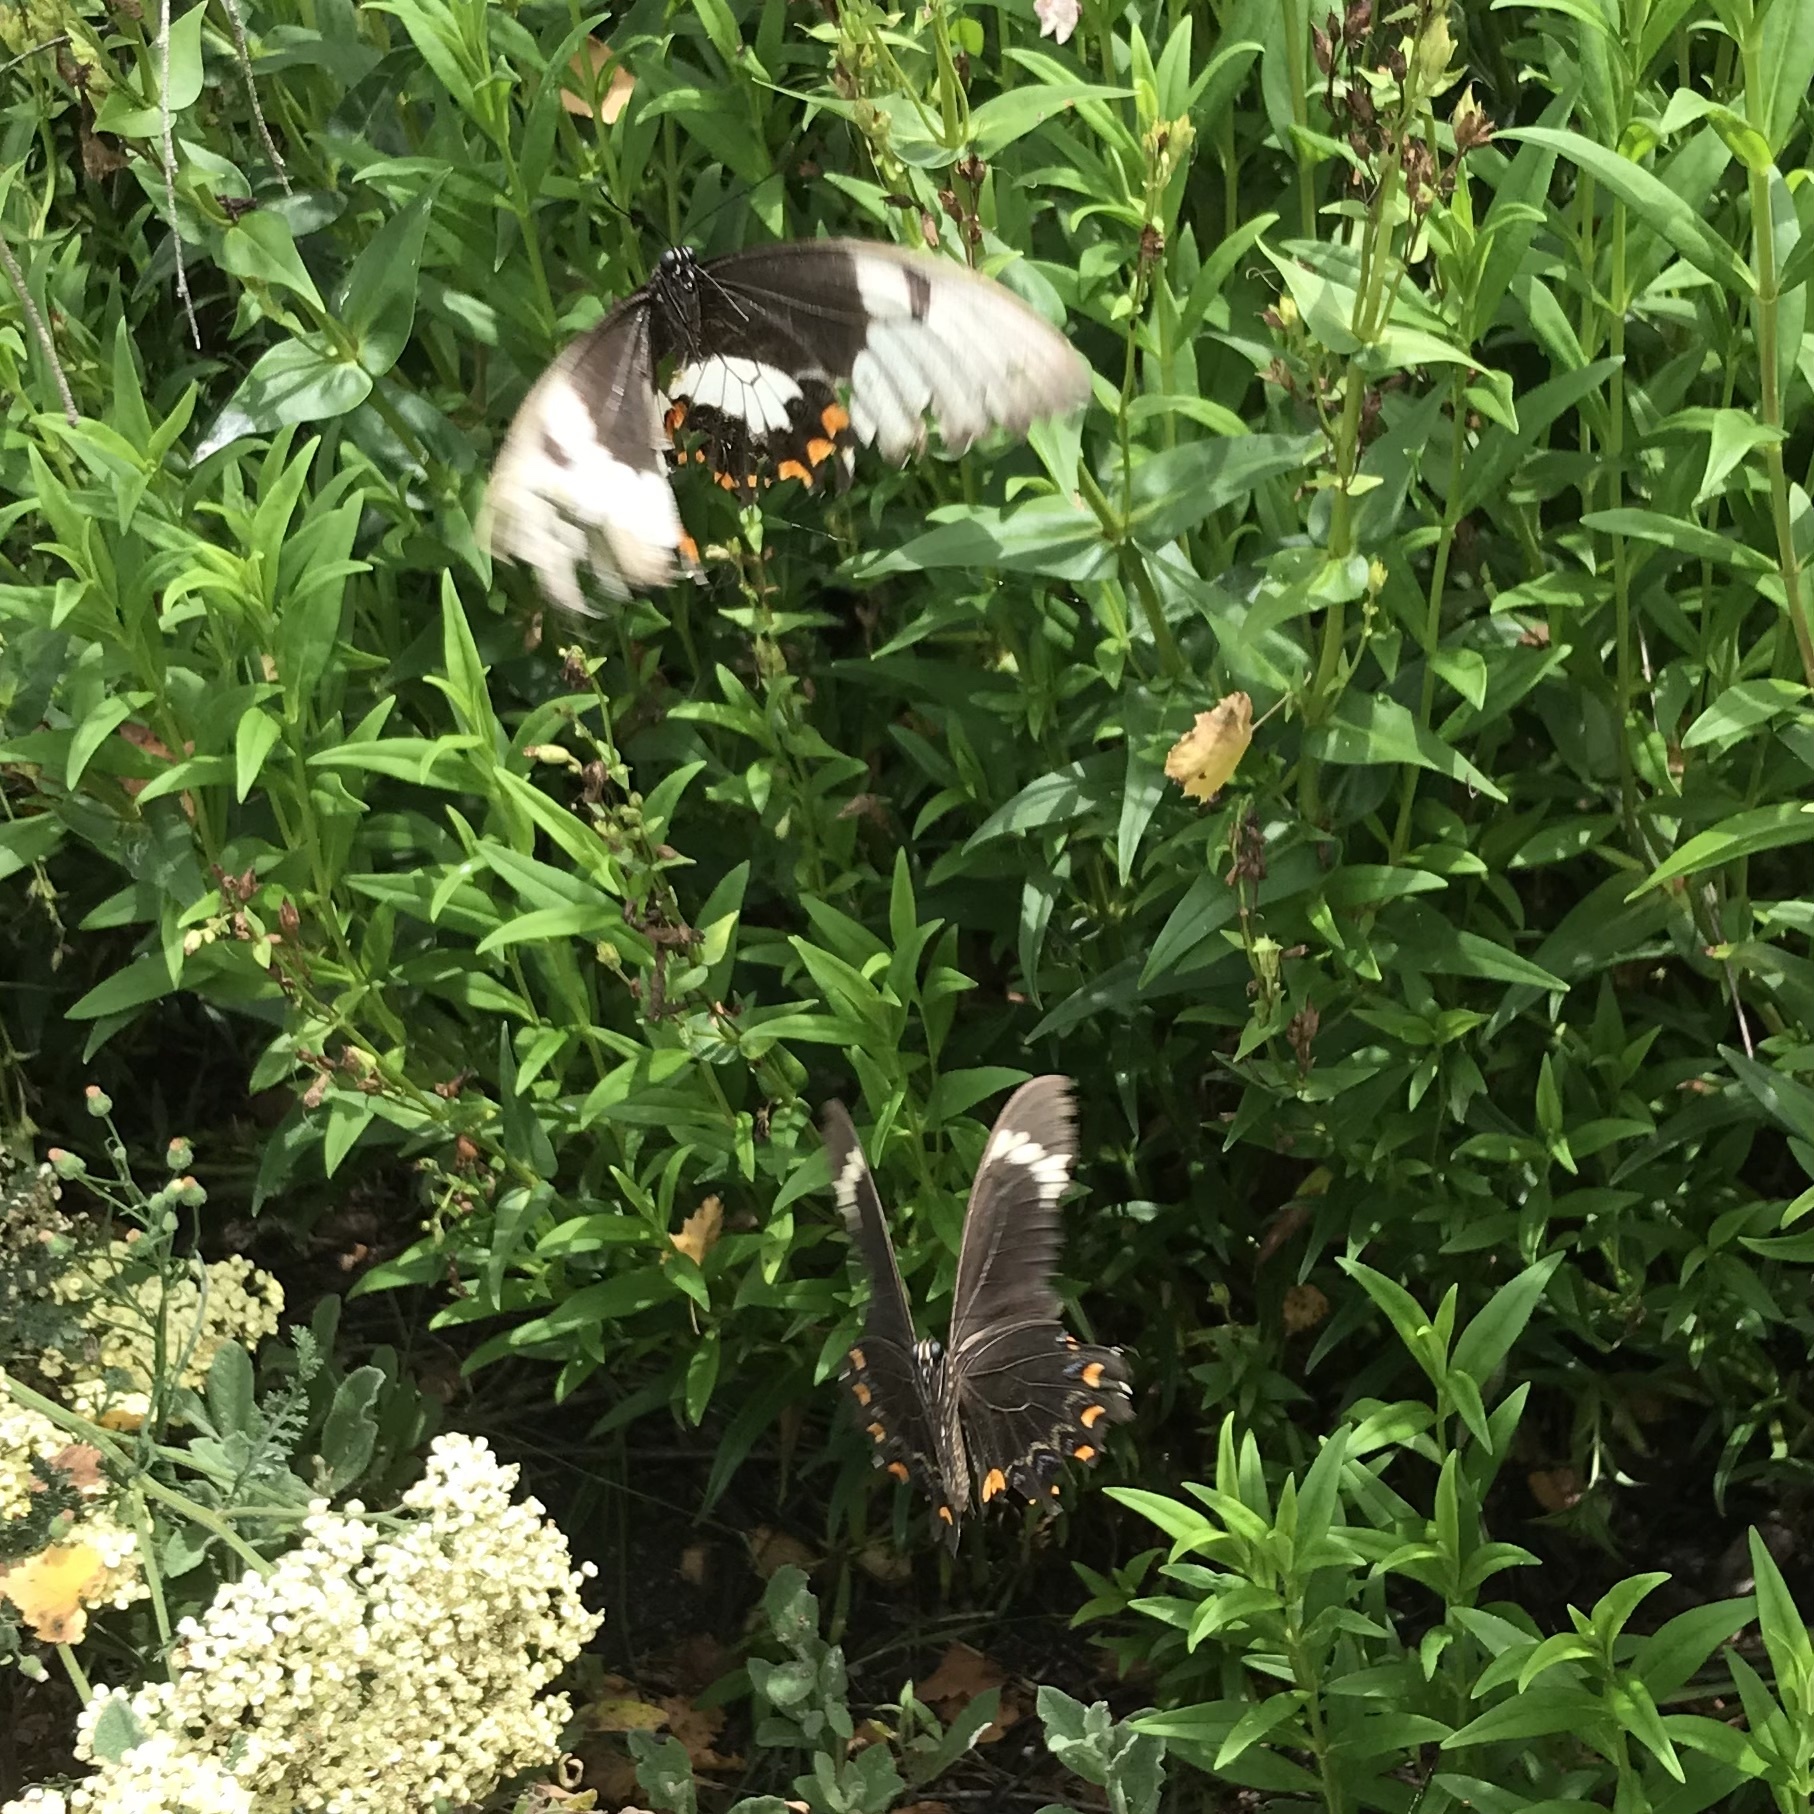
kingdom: Animalia
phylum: Arthropoda
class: Insecta
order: Lepidoptera
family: Papilionidae
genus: Papilio
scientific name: Papilio aegeus
